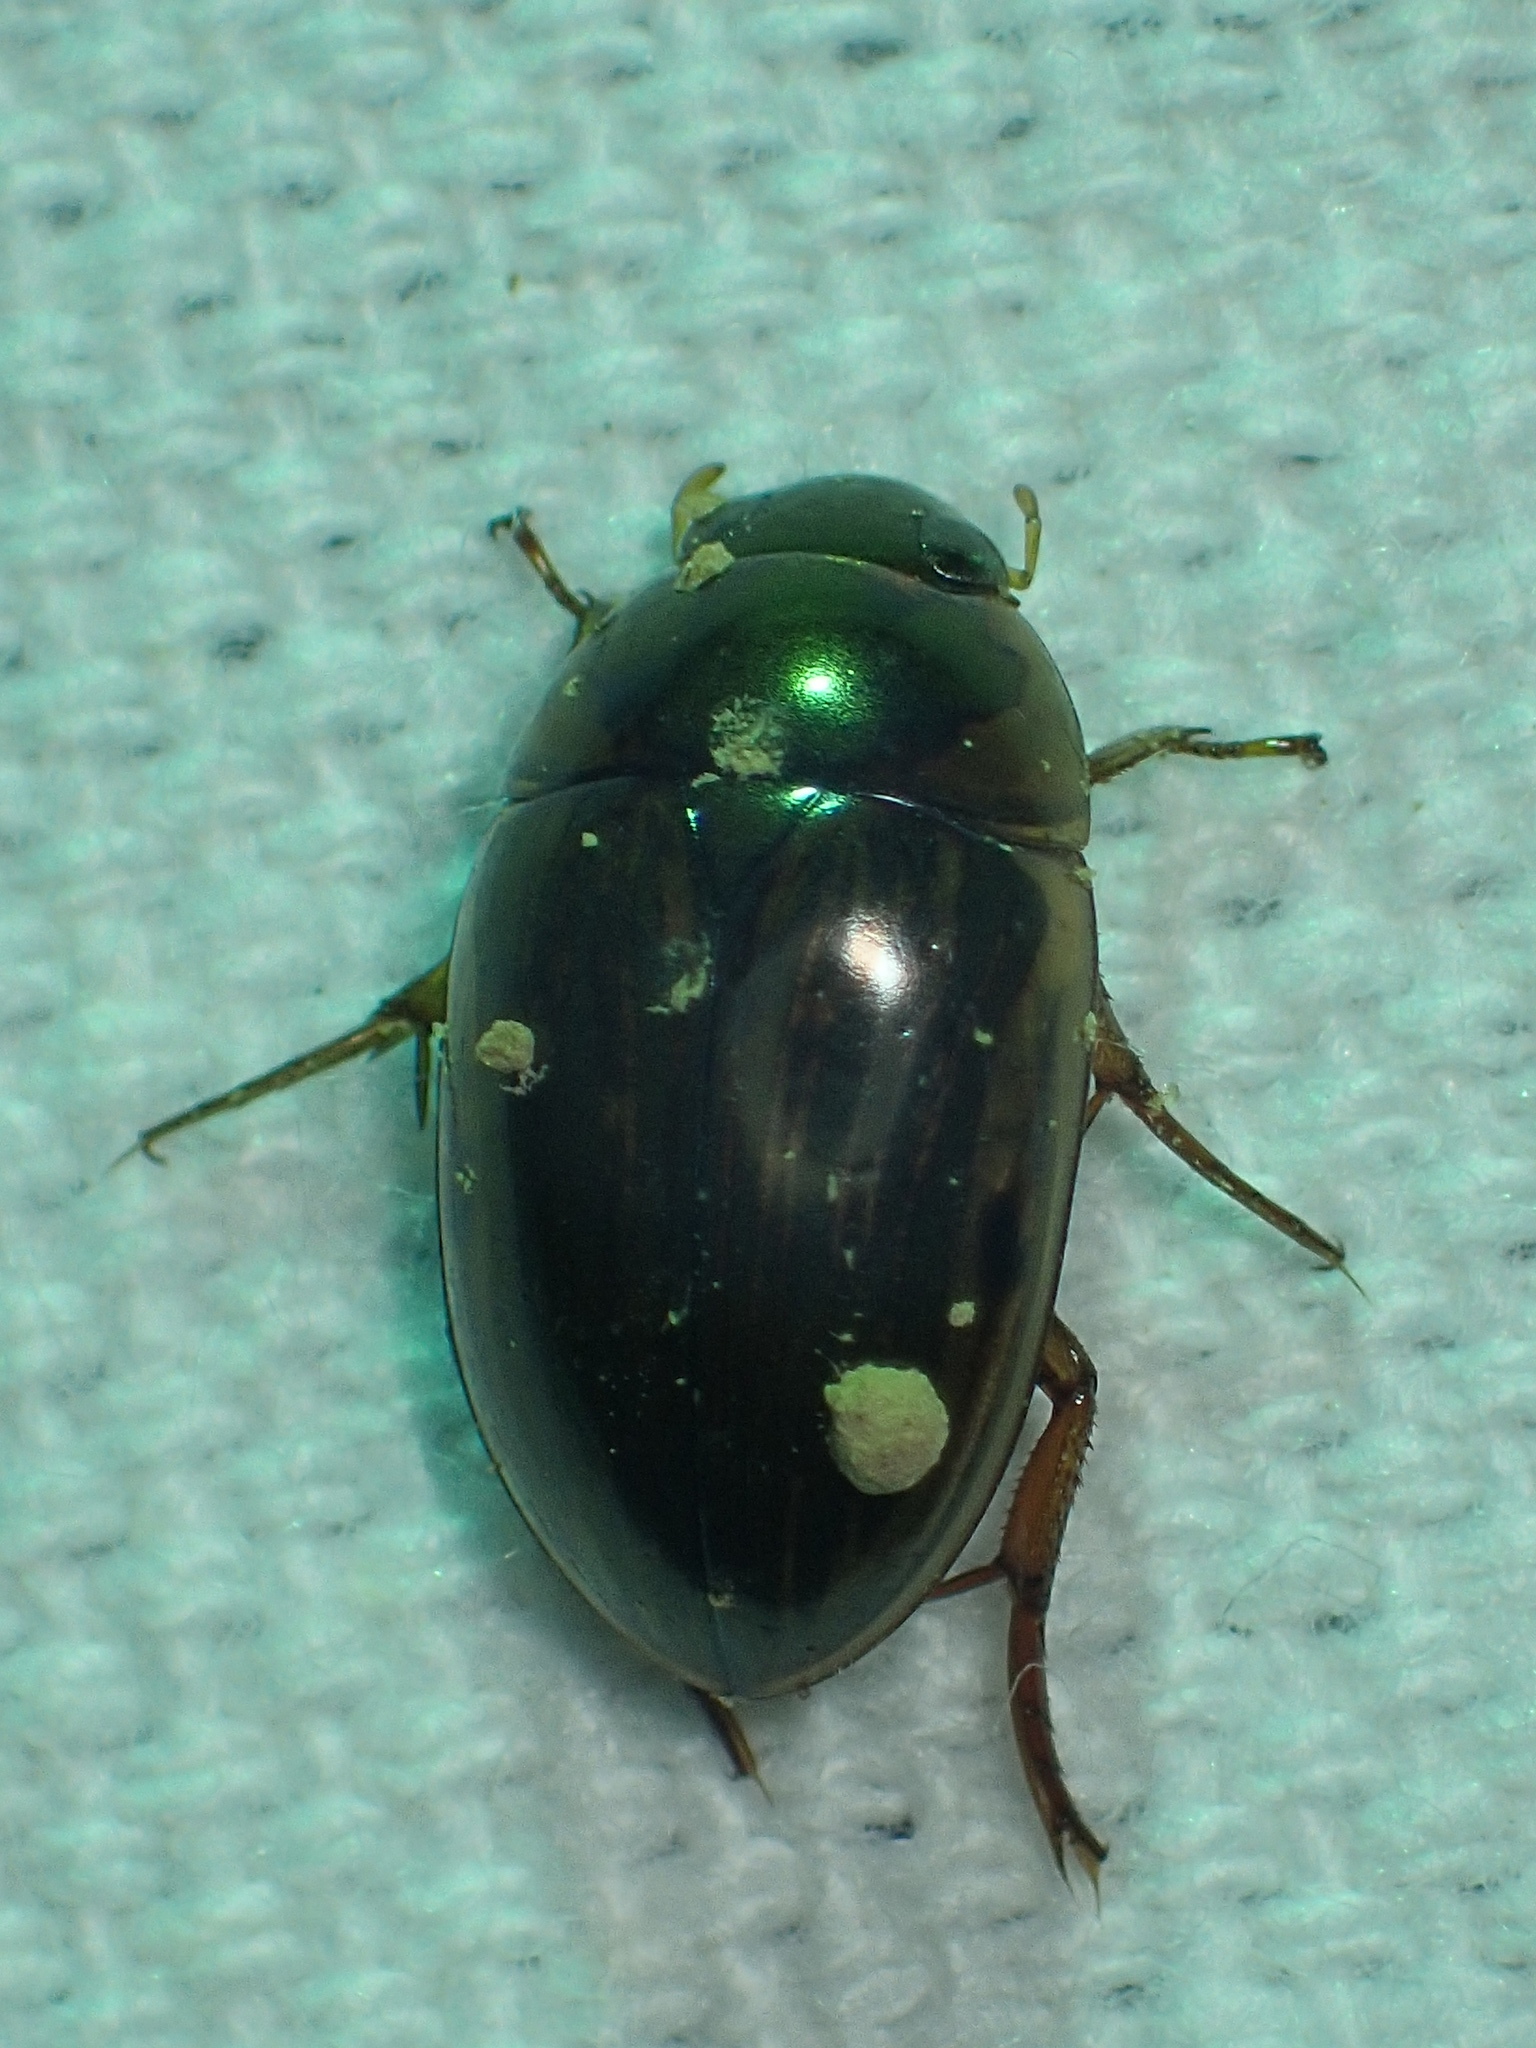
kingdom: Animalia
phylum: Arthropoda
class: Insecta
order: Coleoptera
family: Hydrophilidae
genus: Tropisternus
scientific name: Tropisternus collaris
